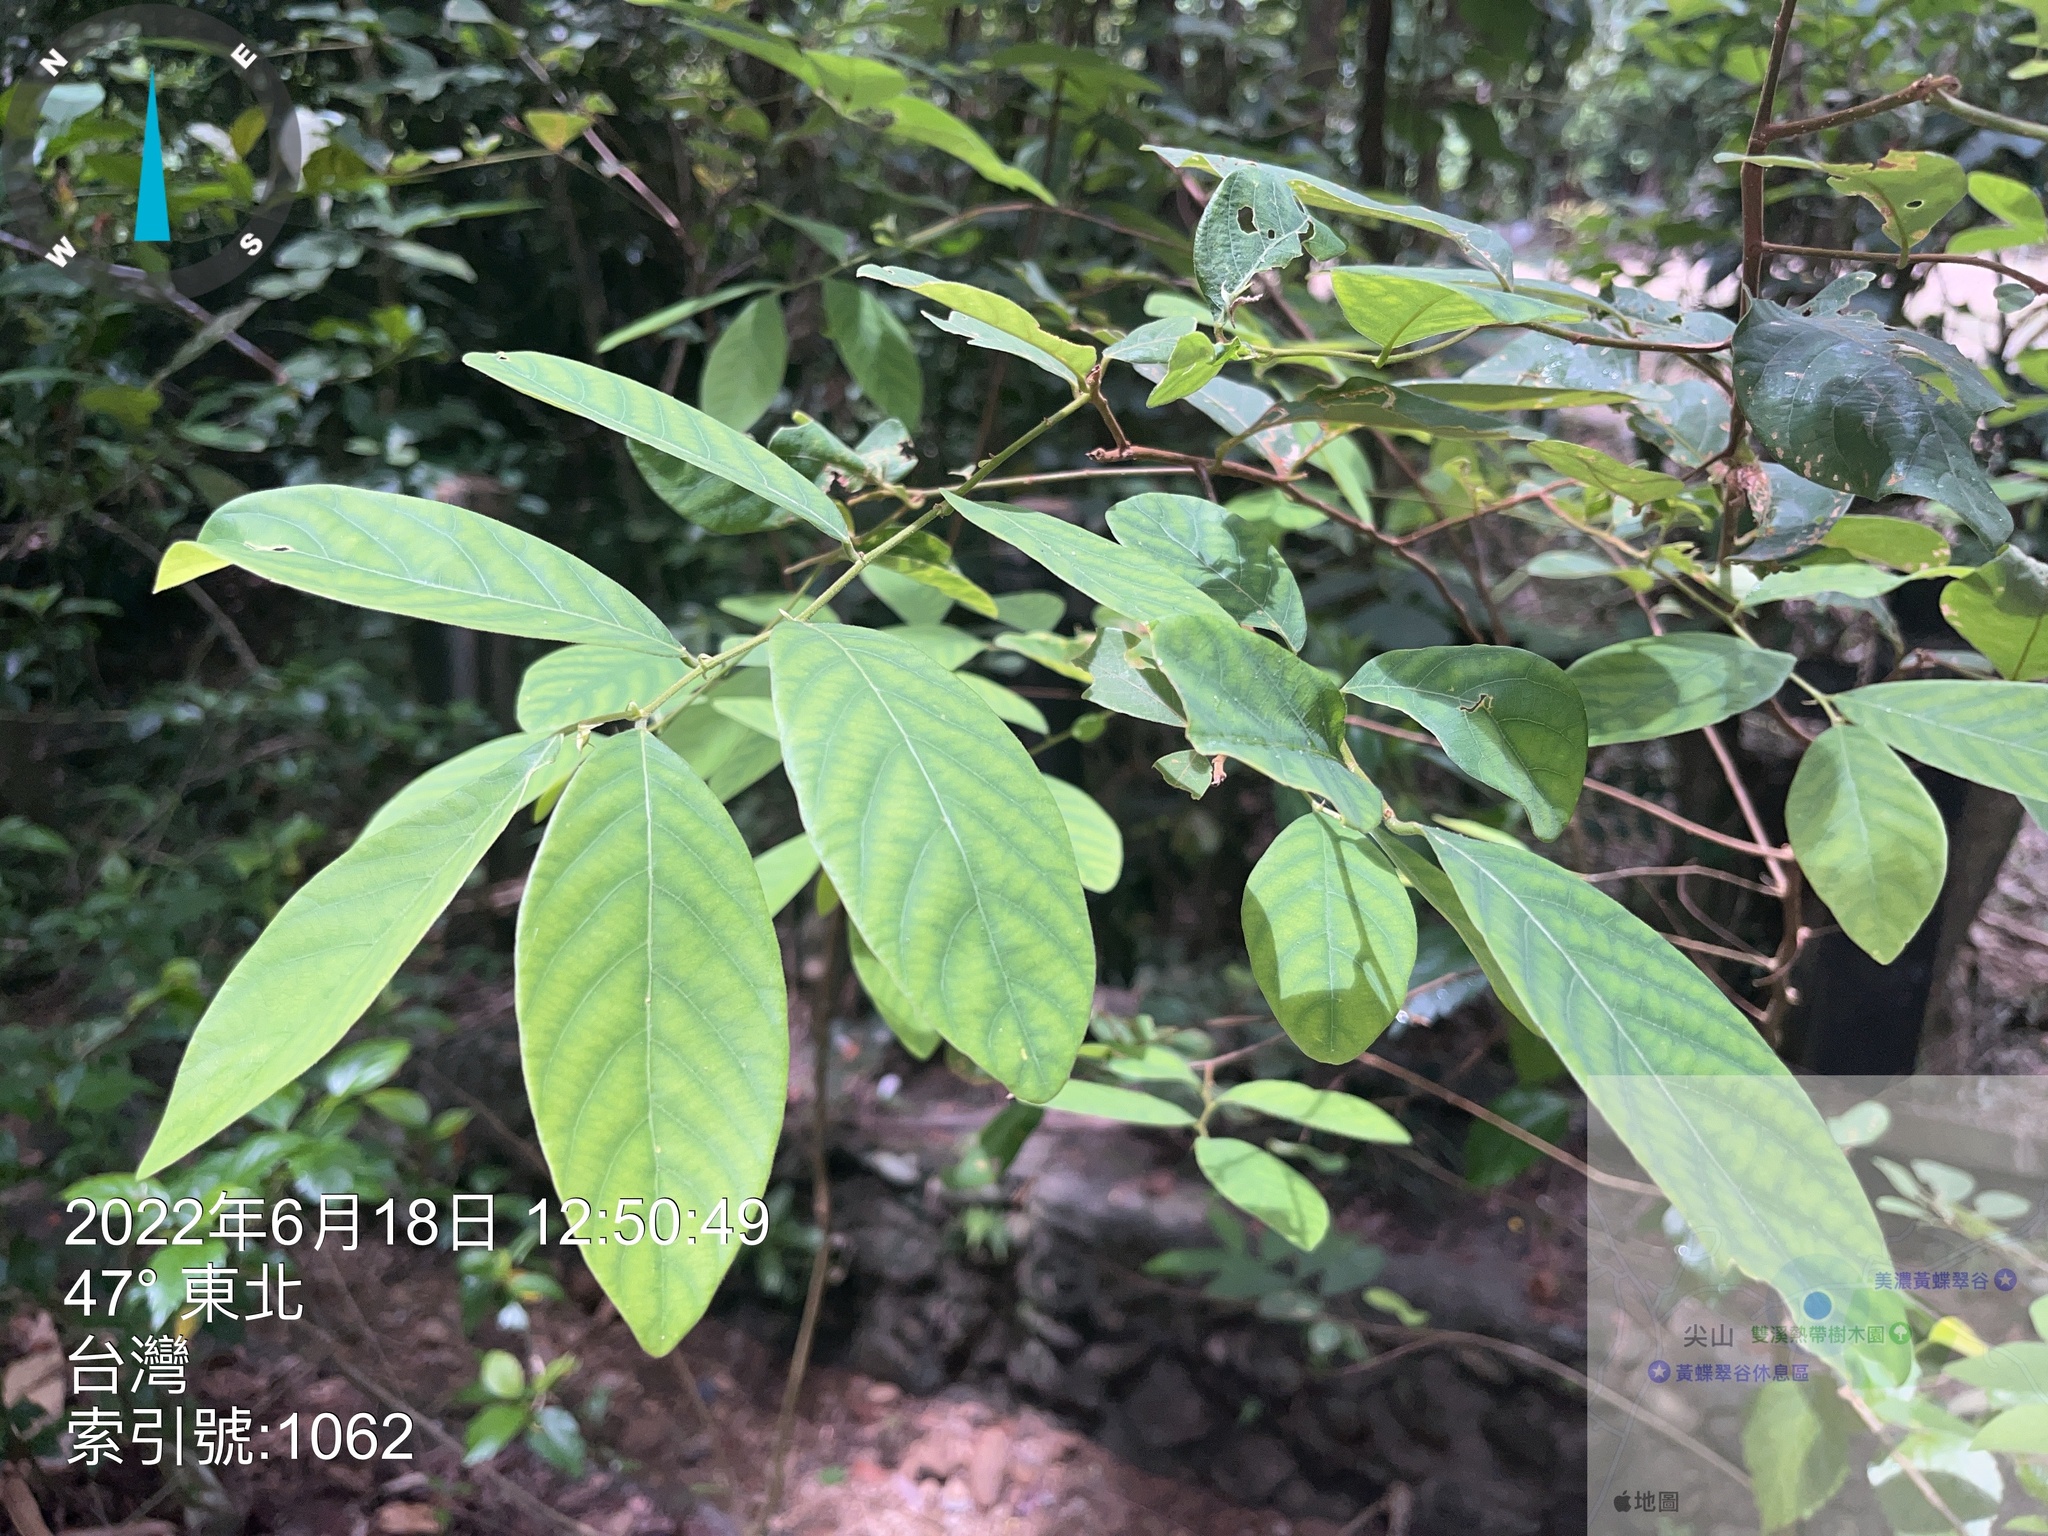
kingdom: Plantae
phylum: Tracheophyta
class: Magnoliopsida
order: Malpighiales
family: Phyllanthaceae
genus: Bridelia
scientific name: Bridelia tomentosa
